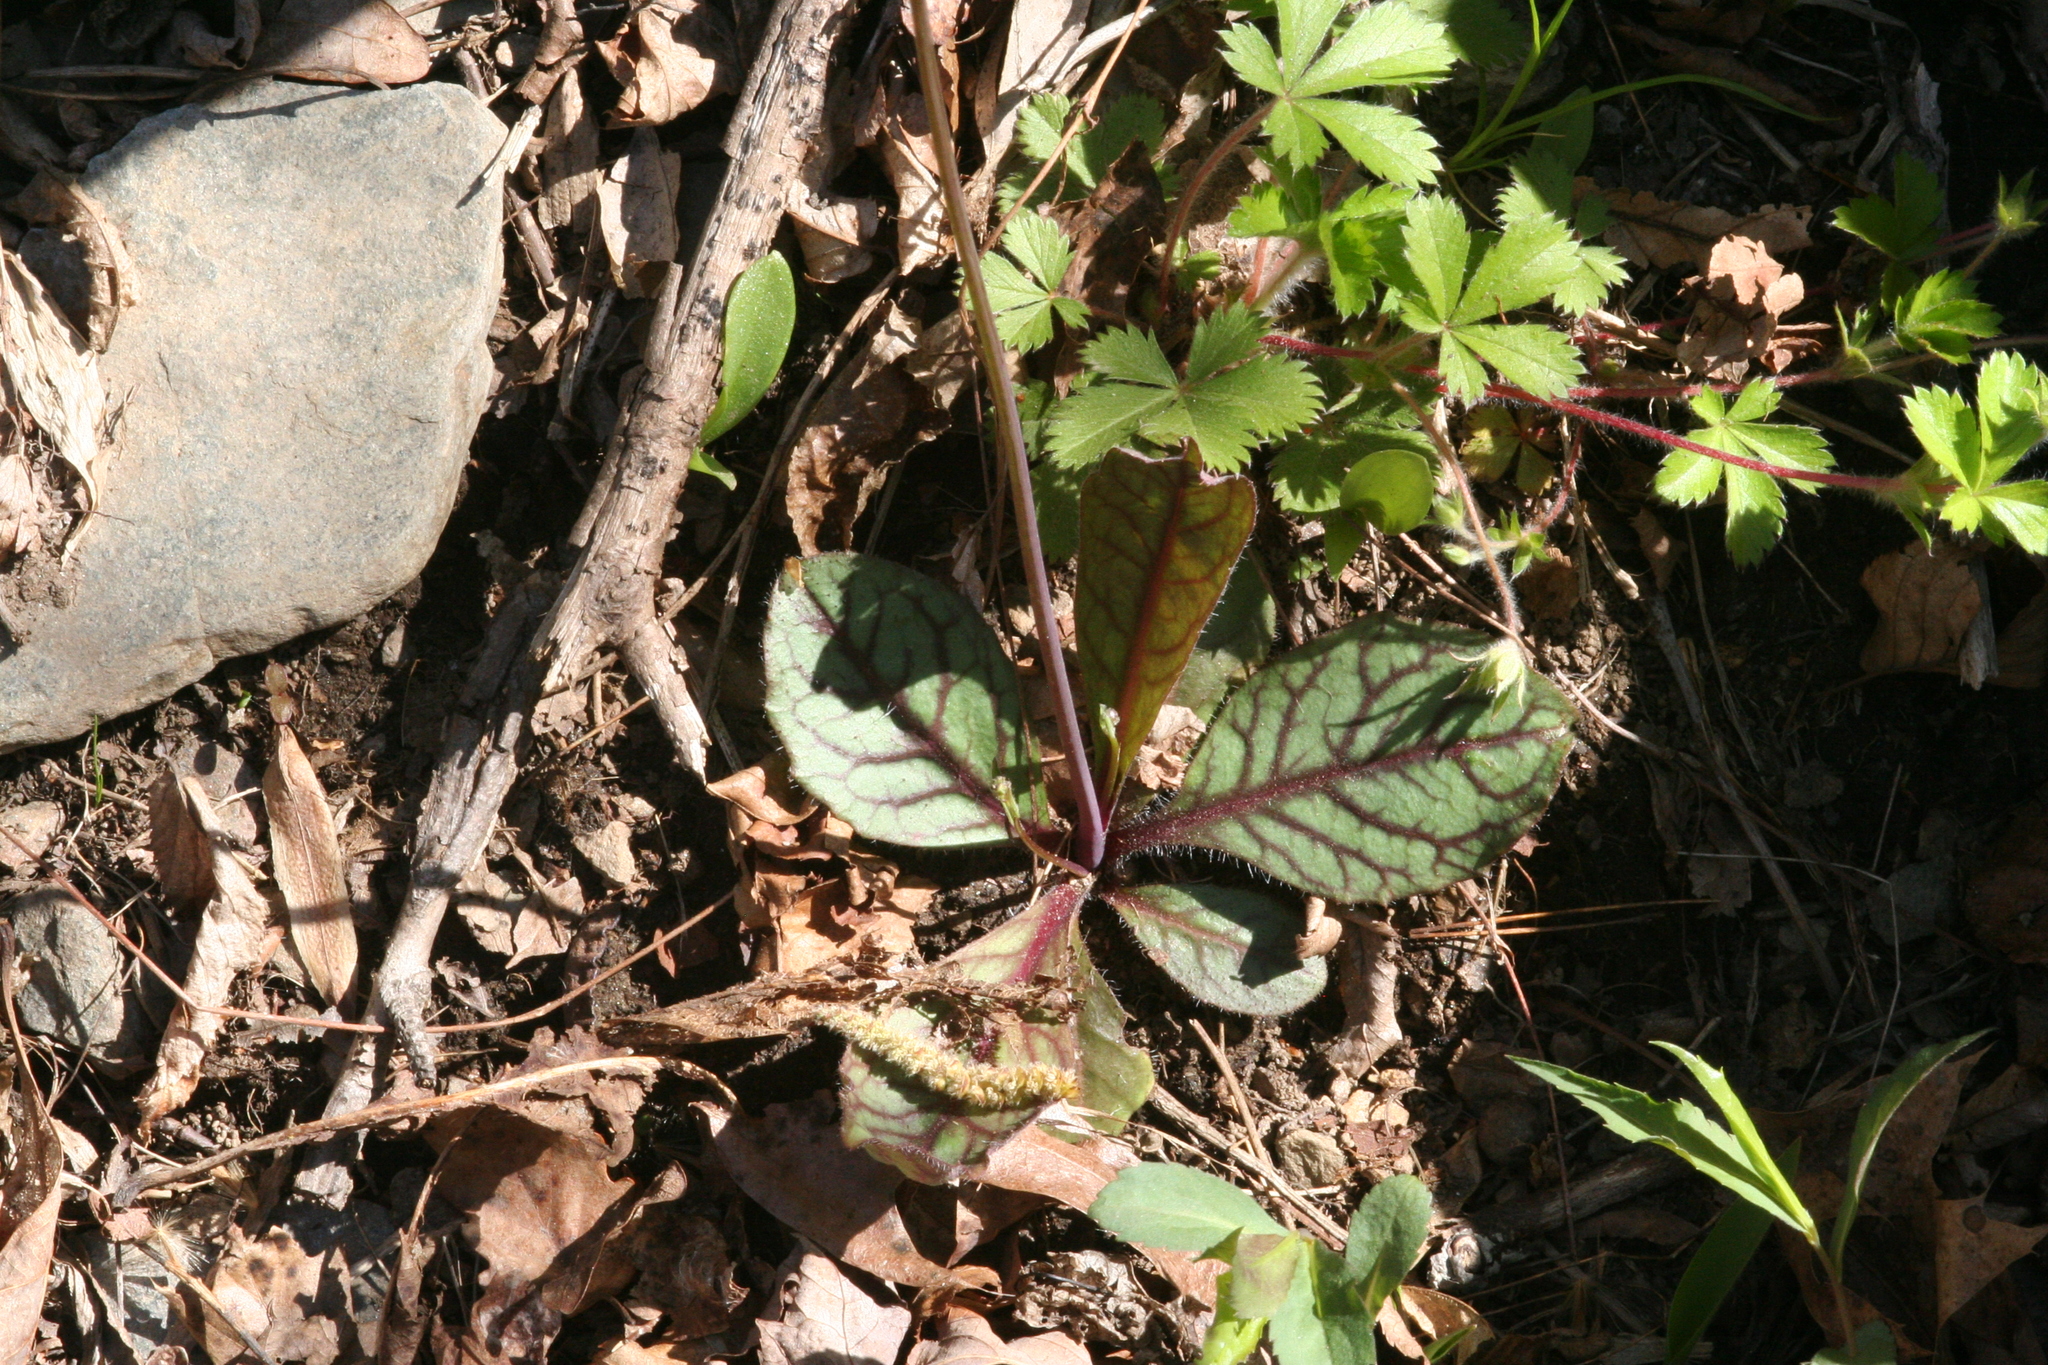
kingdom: Plantae
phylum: Tracheophyta
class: Magnoliopsida
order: Asterales
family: Asteraceae
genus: Hieracium
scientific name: Hieracium venosum
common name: Rattlesnake hawkweed
